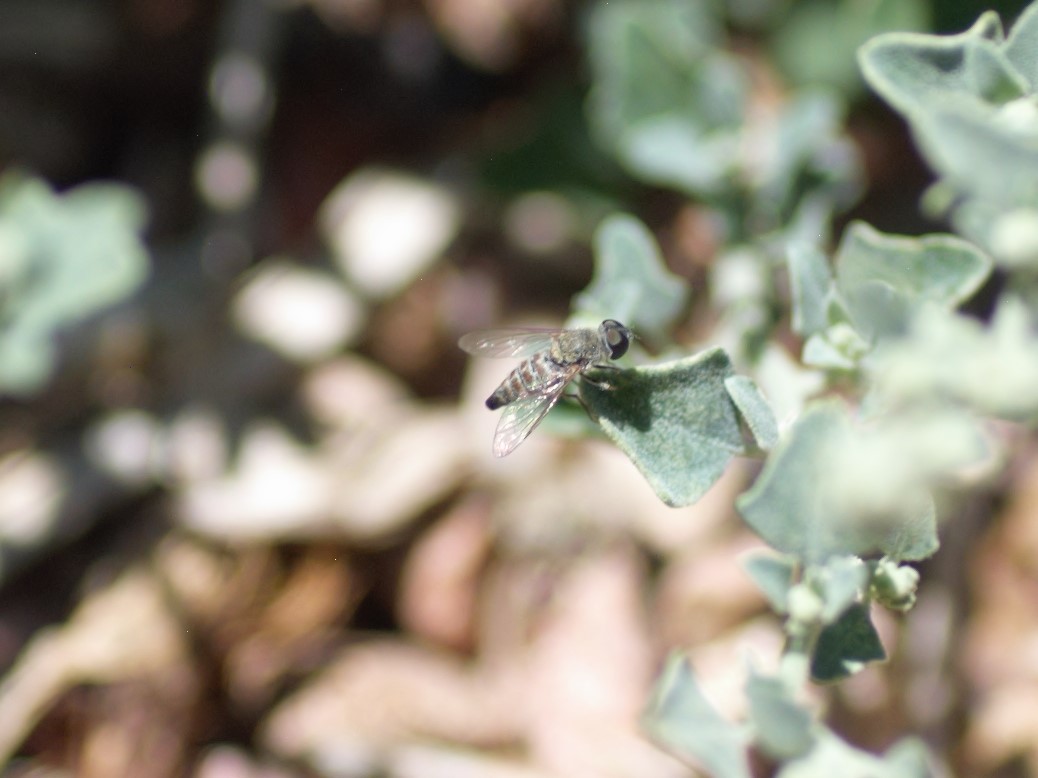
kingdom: Animalia
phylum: Arthropoda
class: Insecta
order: Diptera
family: Bombyliidae
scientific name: Bombyliidae
